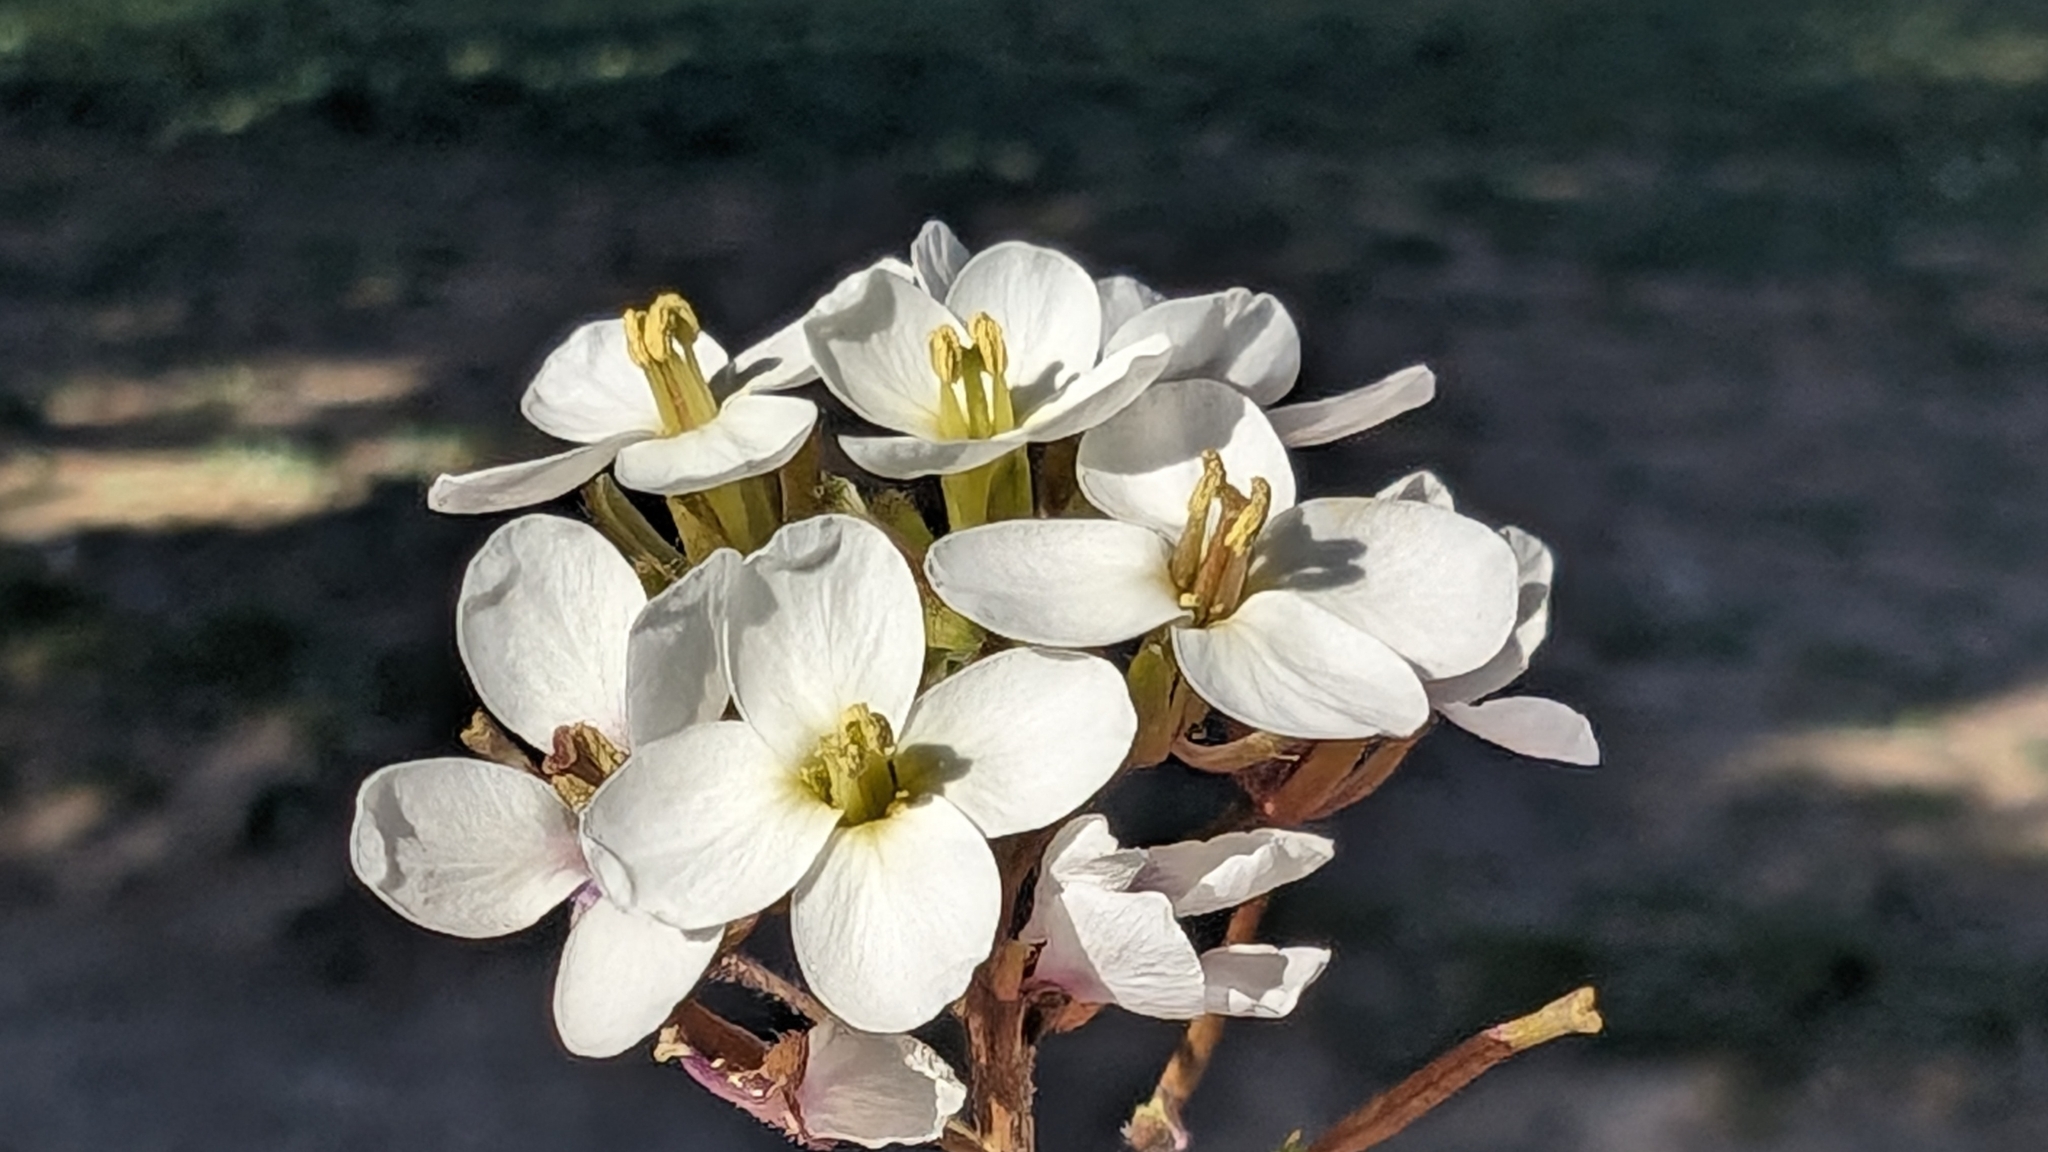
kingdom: Plantae
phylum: Tracheophyta
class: Magnoliopsida
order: Brassicales
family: Brassicaceae
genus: Diplotaxis
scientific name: Diplotaxis erucoides
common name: White rocket
